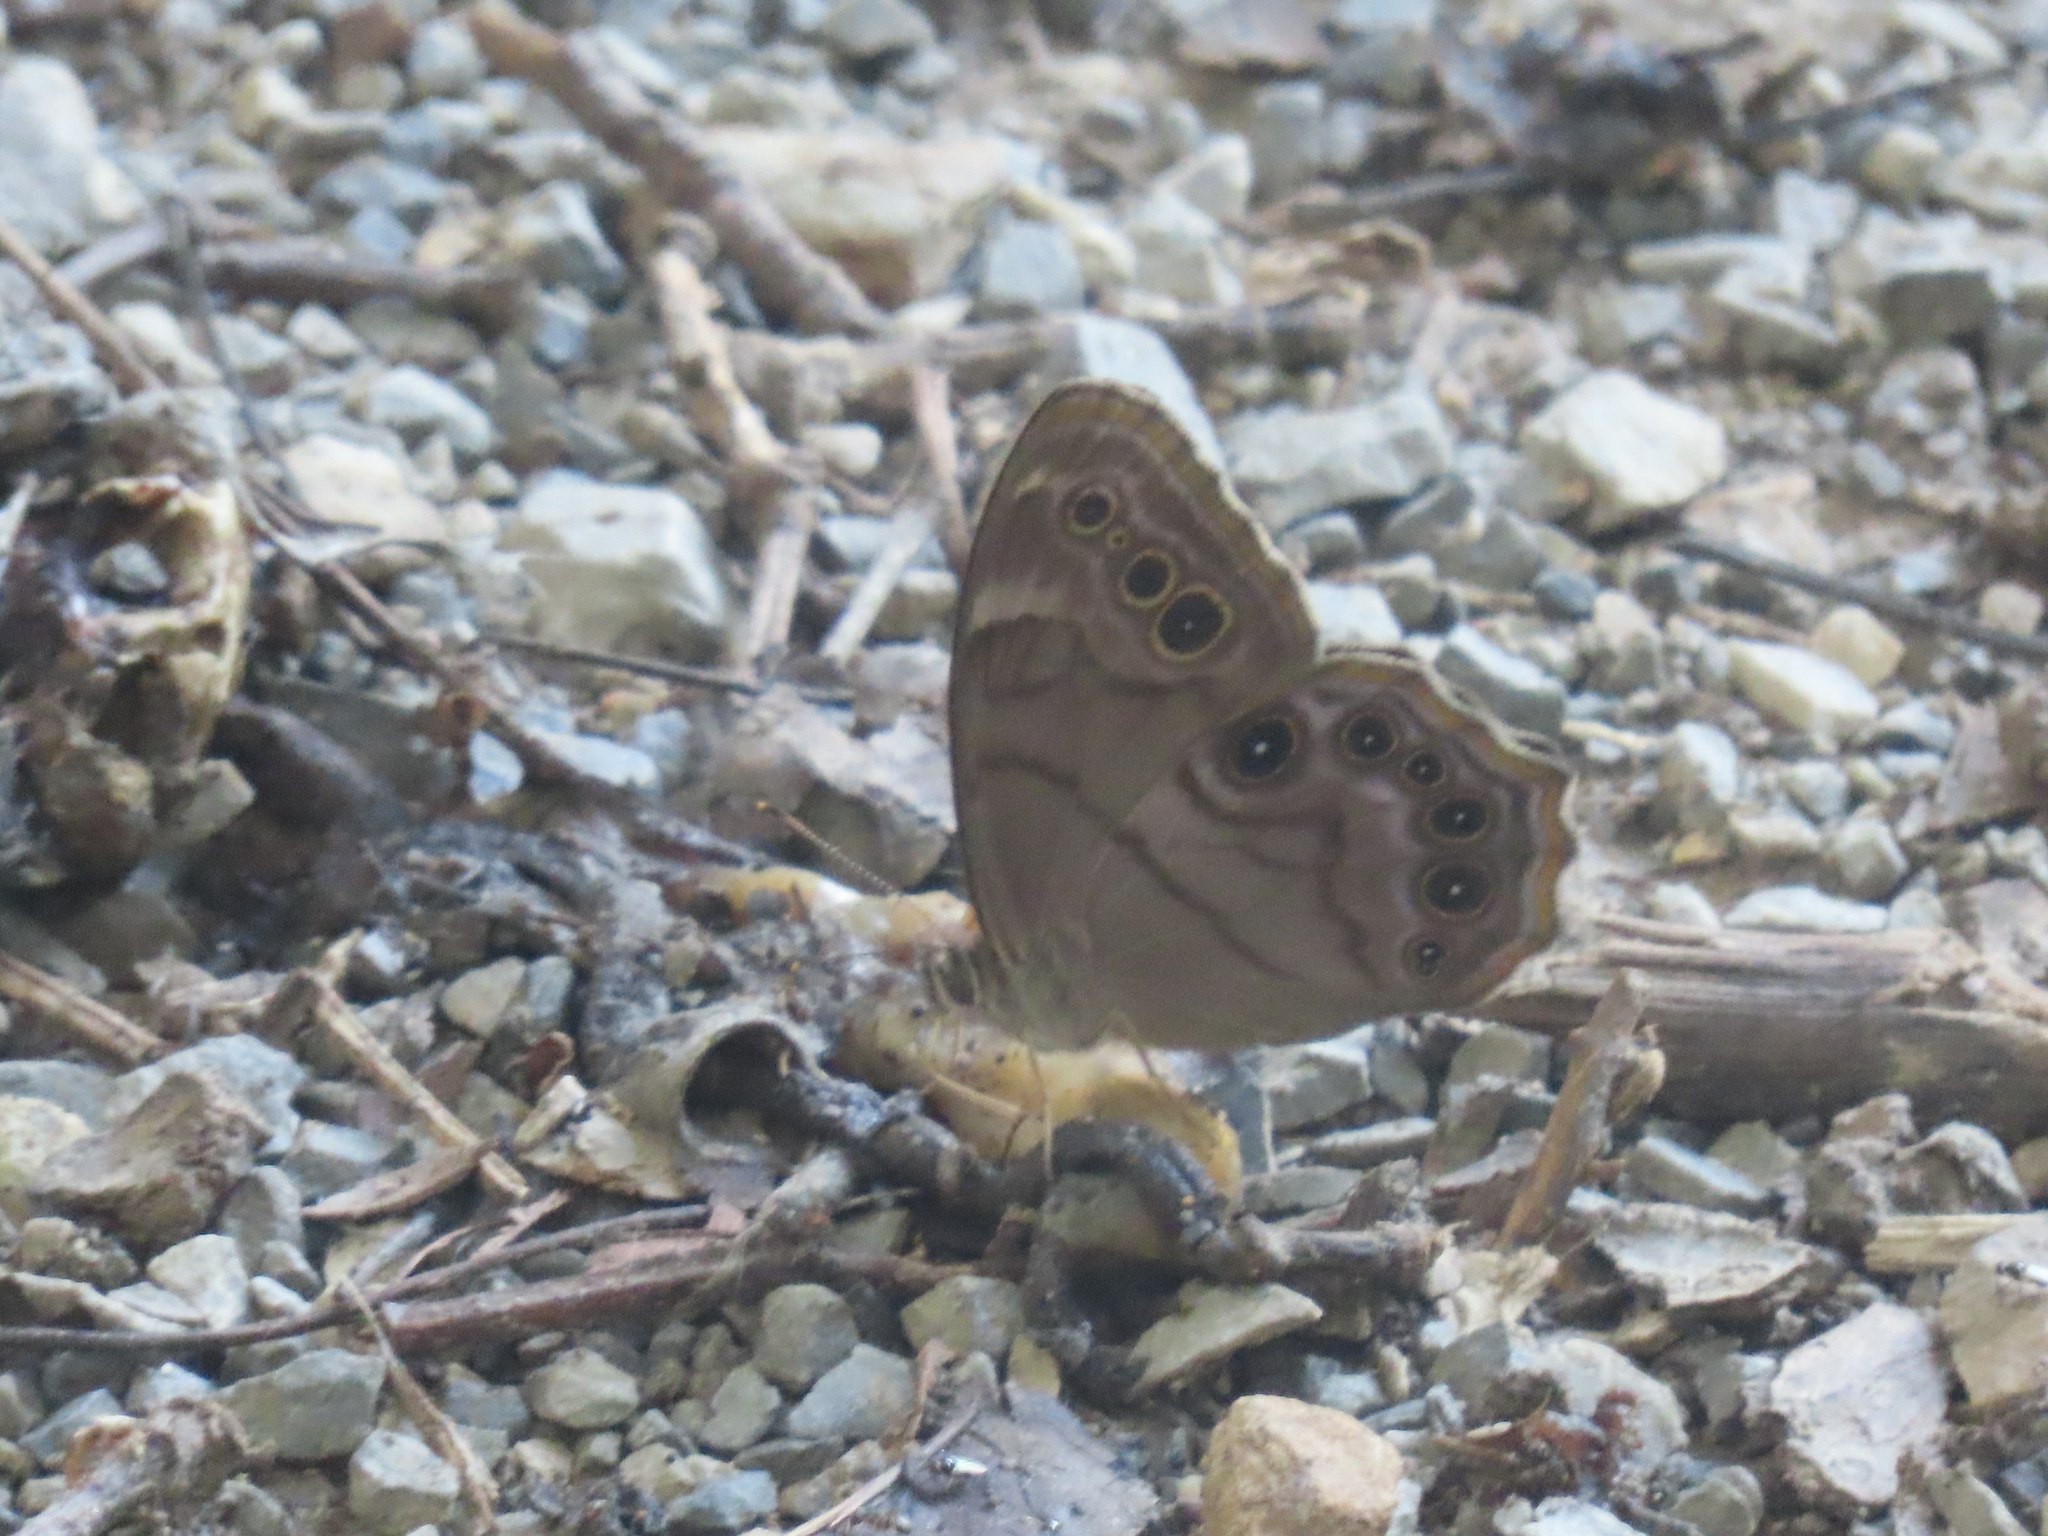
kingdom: Animalia
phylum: Arthropoda
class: Insecta
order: Lepidoptera
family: Nymphalidae
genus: Lethe
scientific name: Lethe anthedon
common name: Northern pearly-eye
